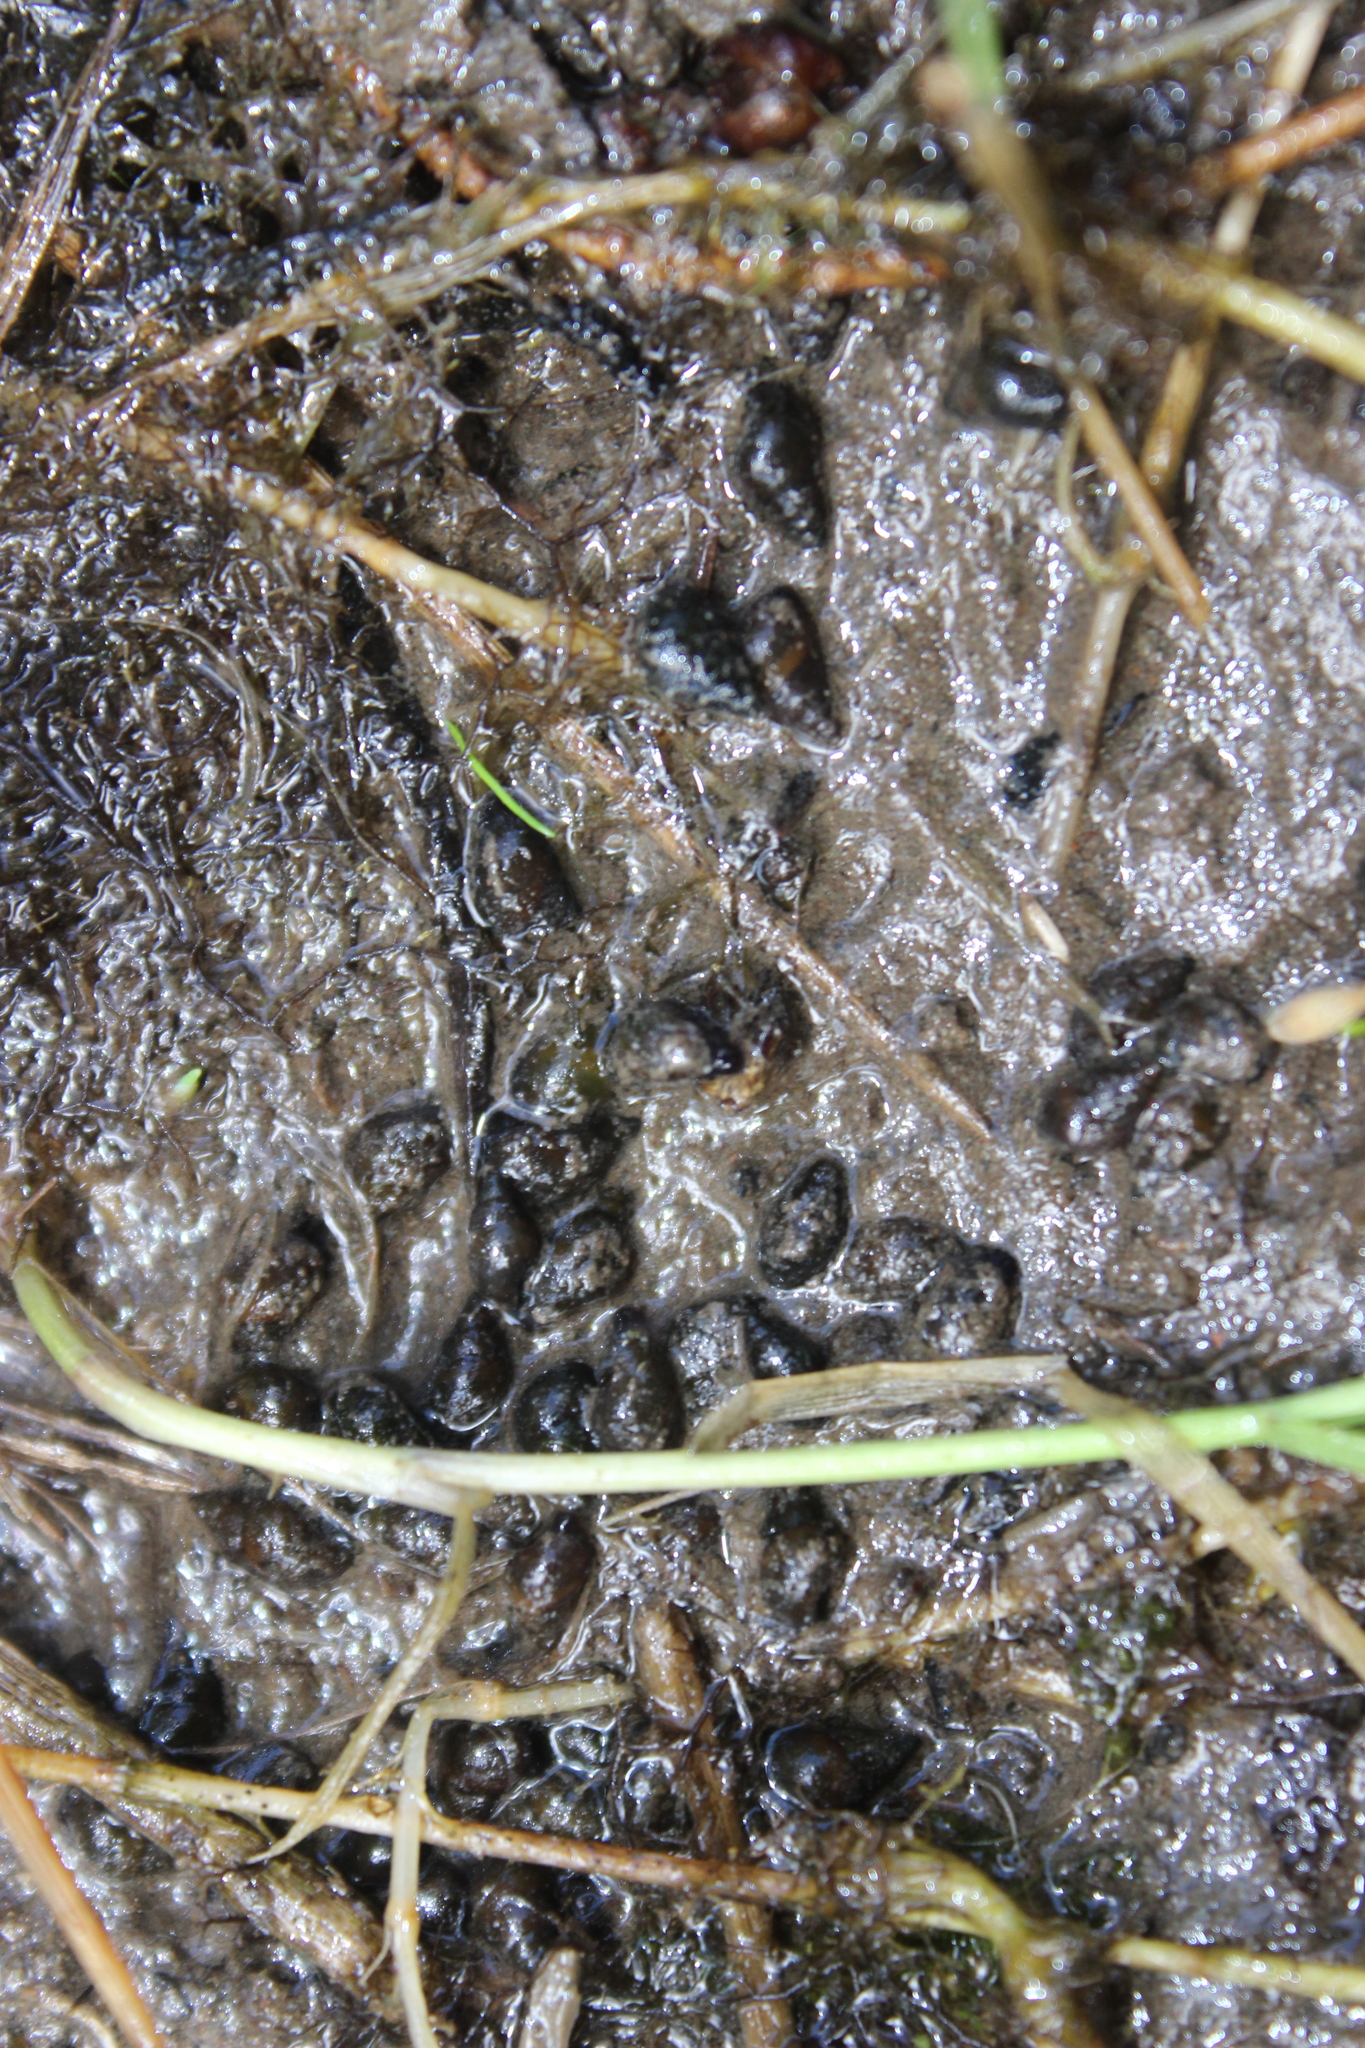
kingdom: Animalia
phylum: Mollusca
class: Gastropoda
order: Littorinimorpha
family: Tateidae
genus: Potamopyrgus
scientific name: Potamopyrgus antipodarum
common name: Jenkins' spire snail
